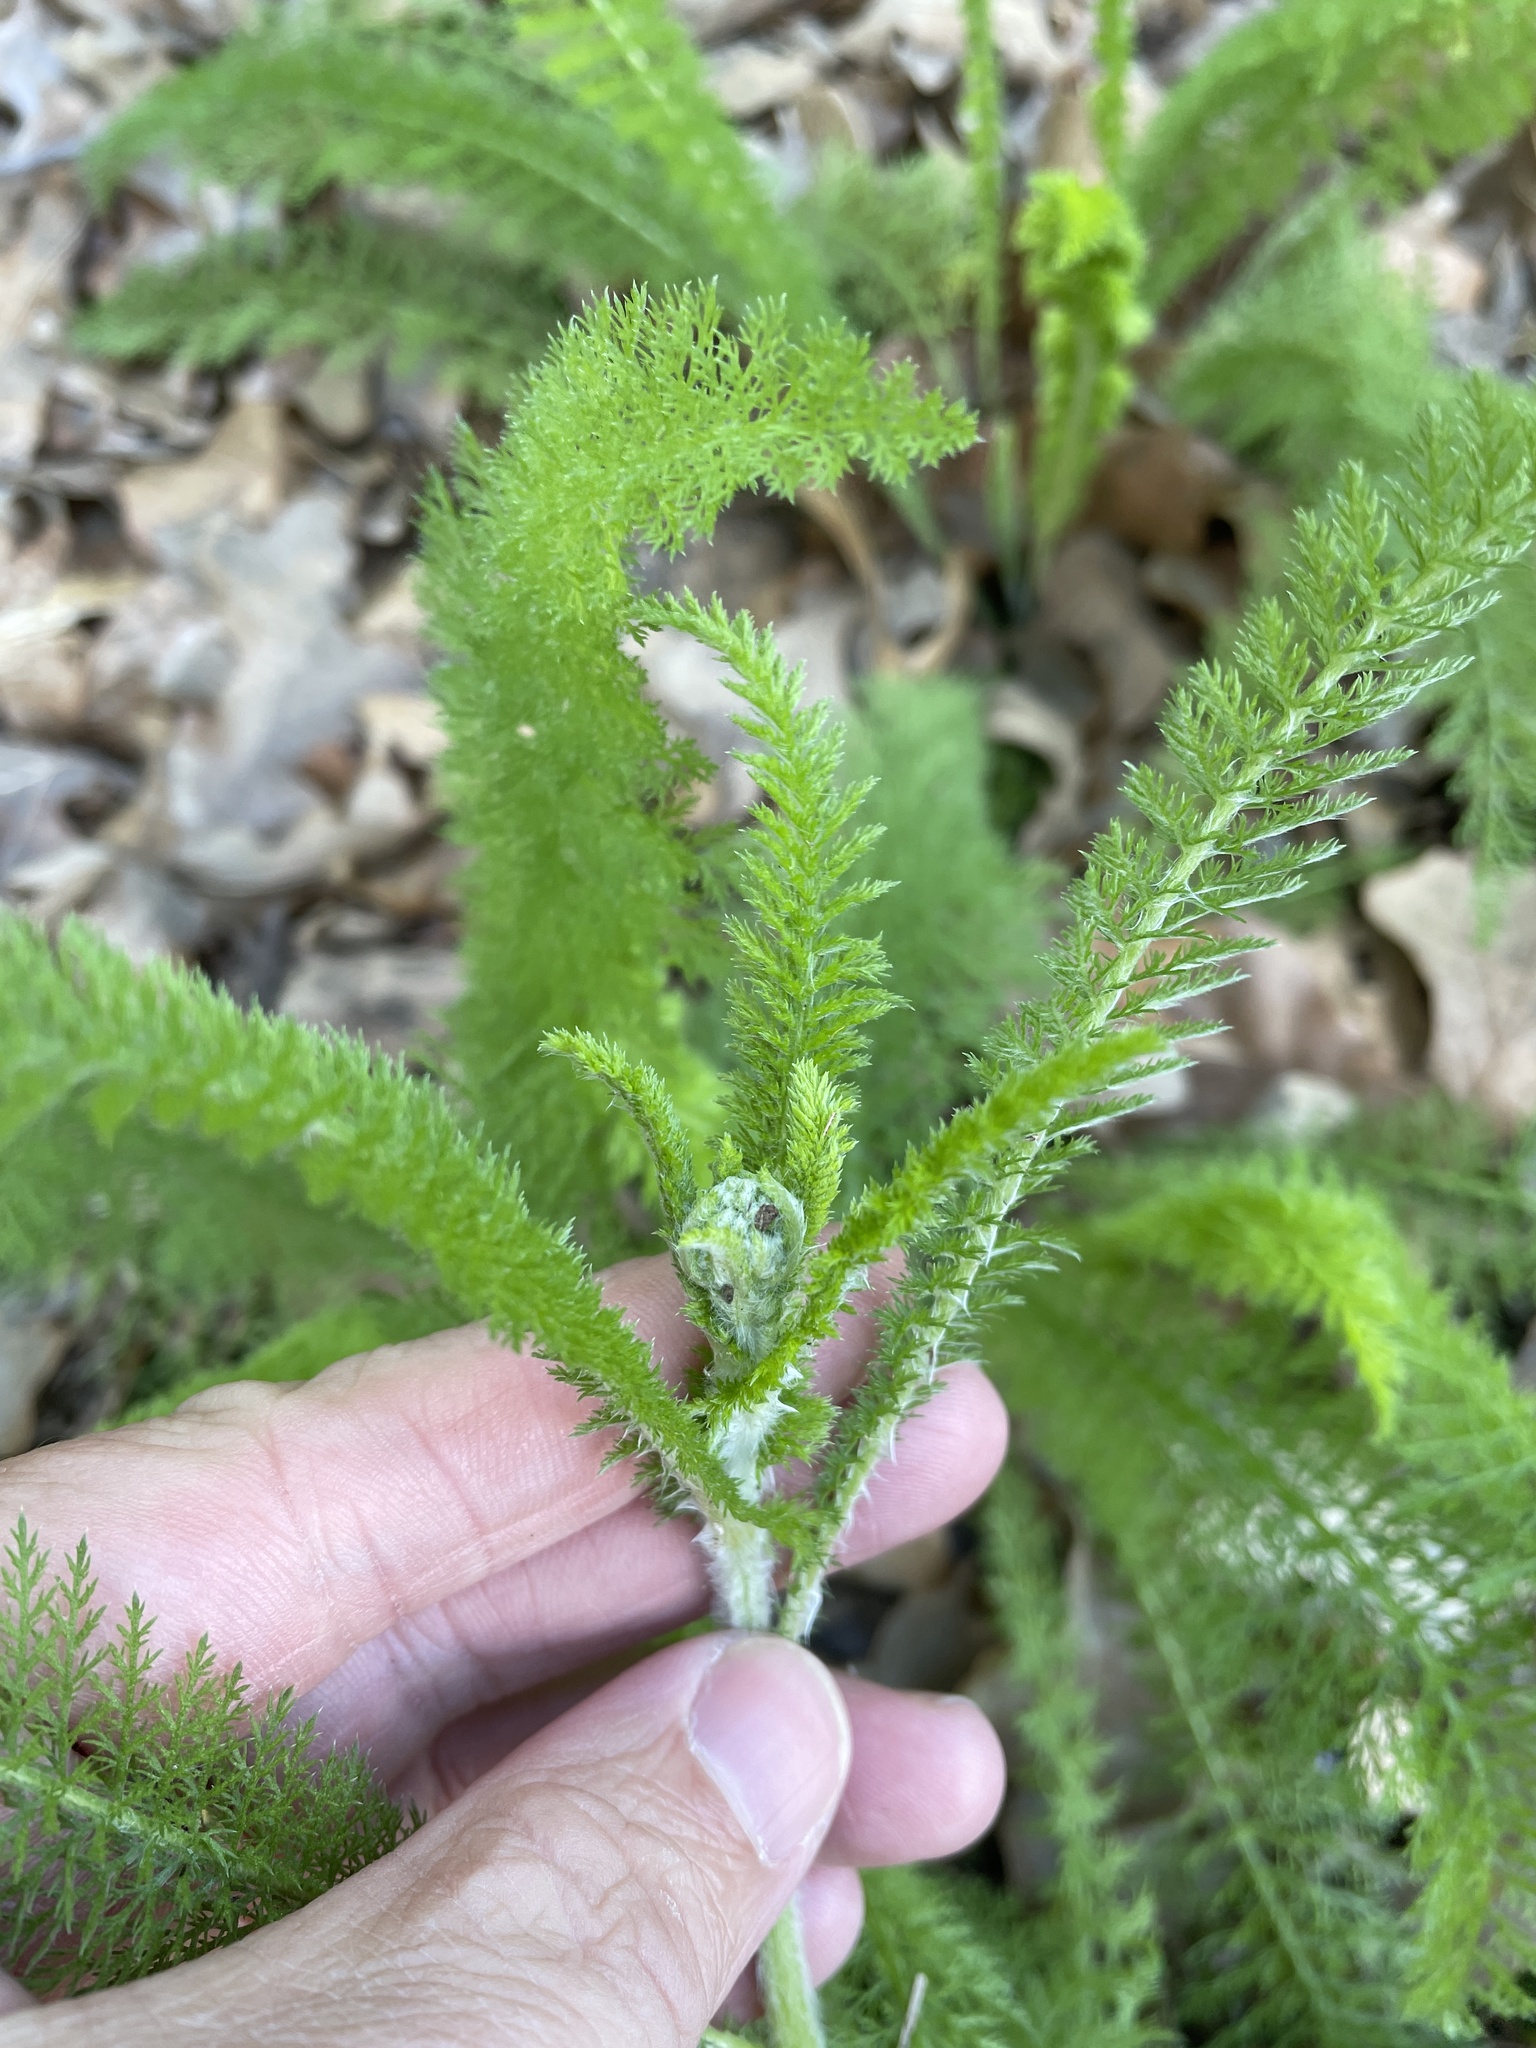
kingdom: Plantae
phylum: Tracheophyta
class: Magnoliopsida
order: Asterales
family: Asteraceae
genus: Achillea
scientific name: Achillea millefolium
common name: Yarrow
